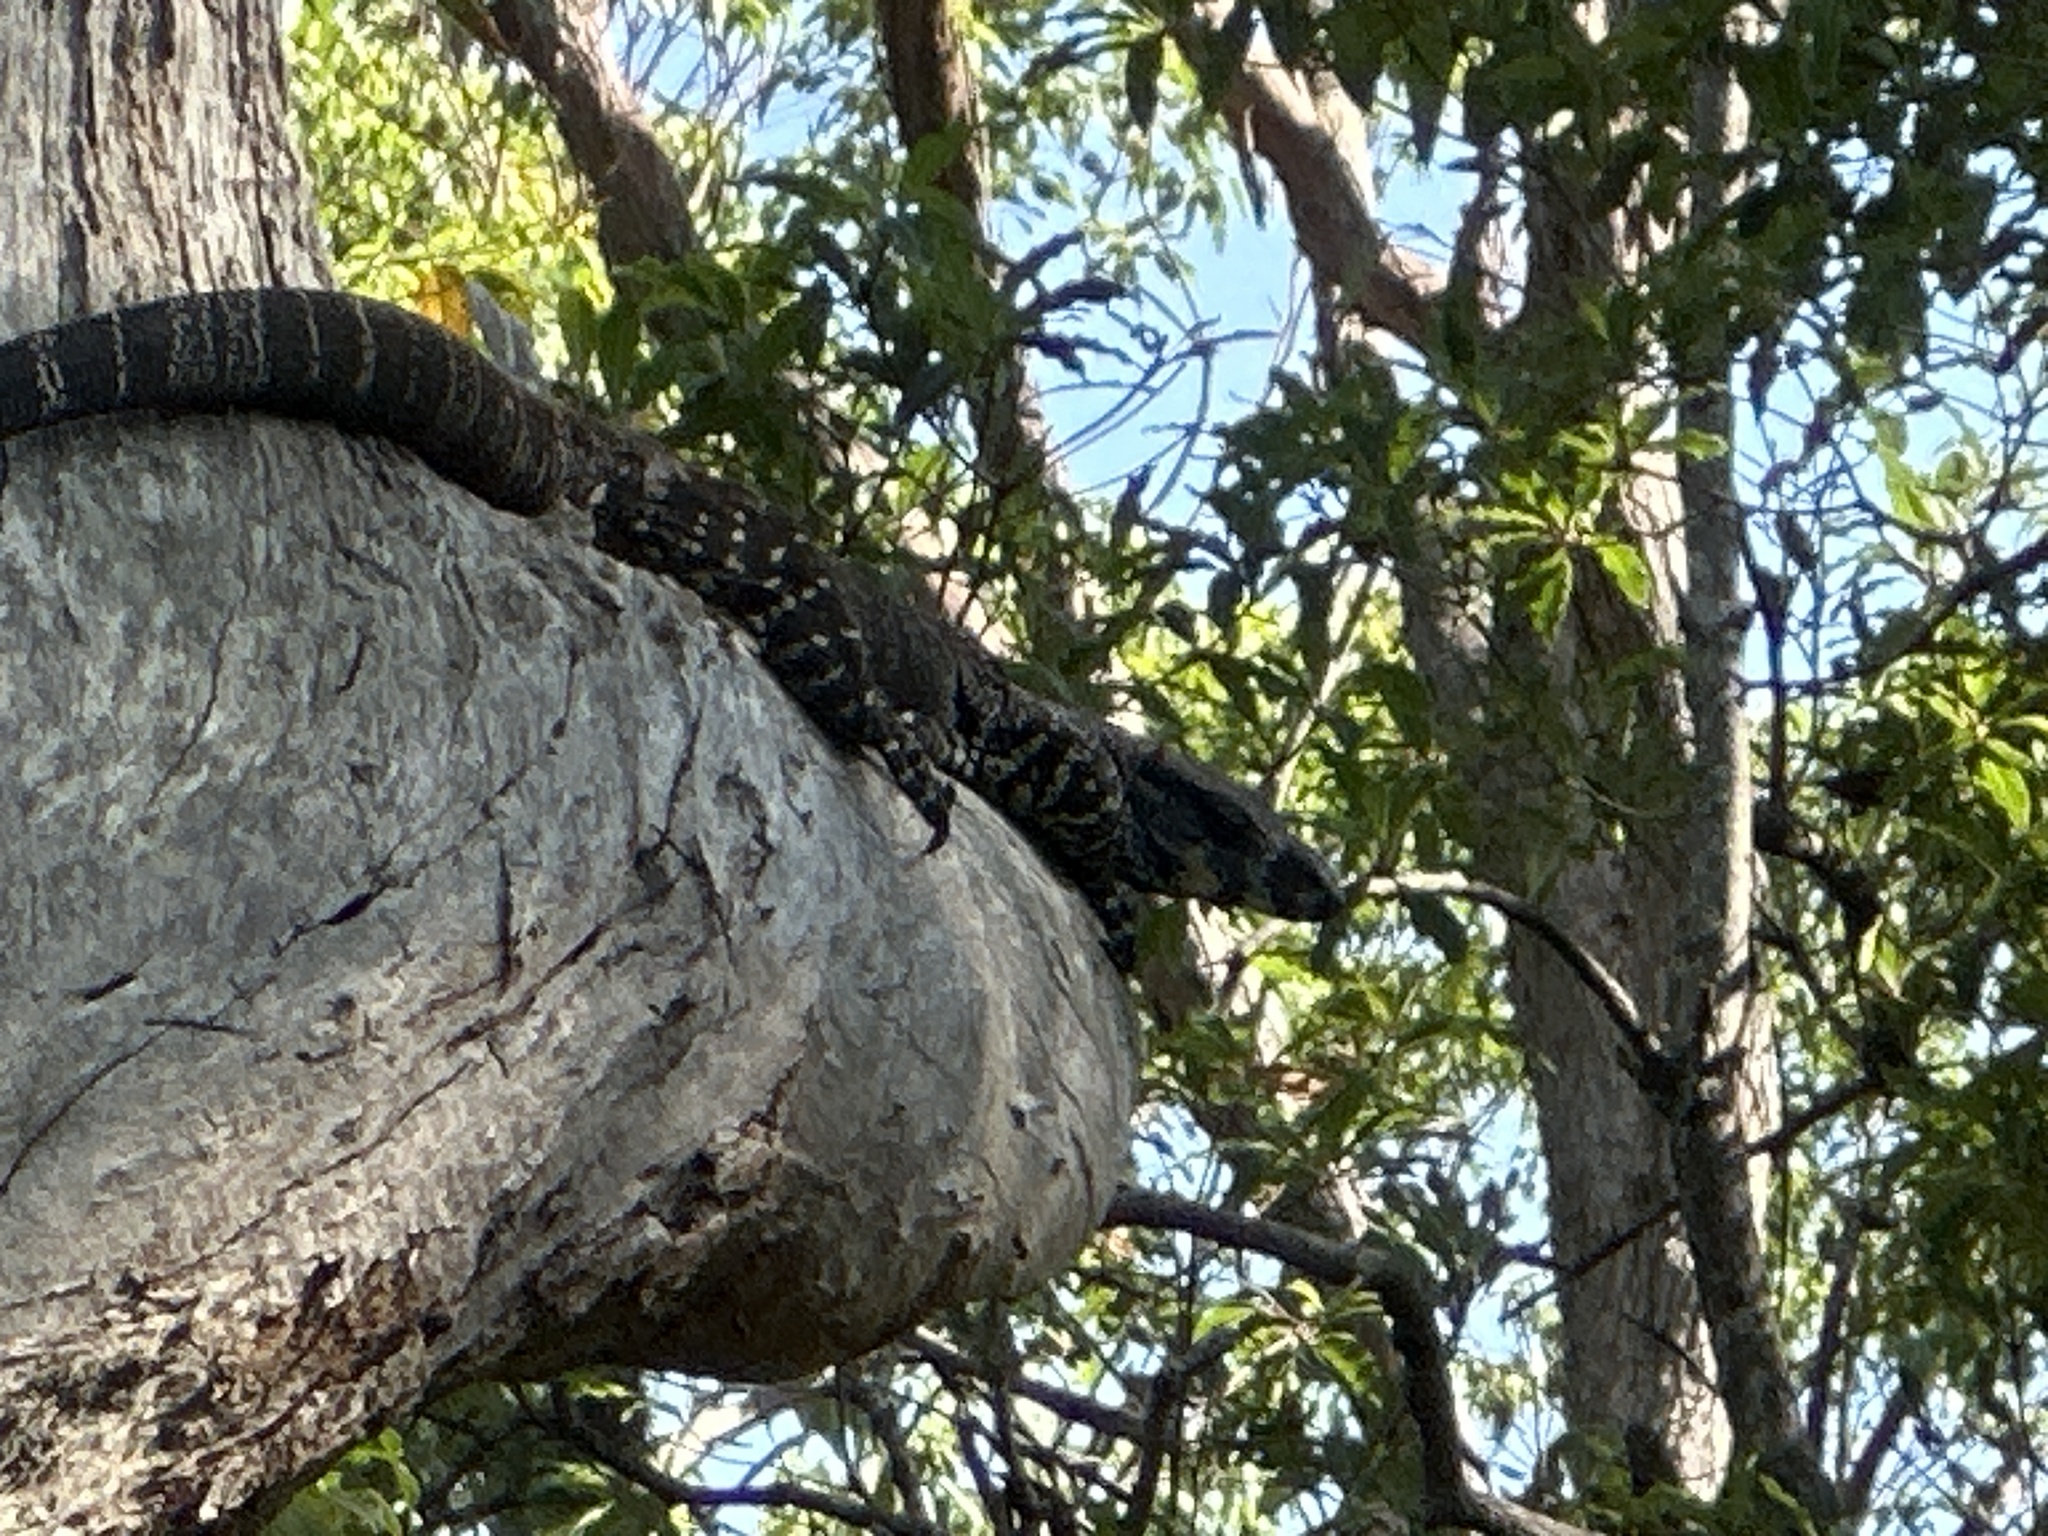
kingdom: Animalia
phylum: Chordata
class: Squamata
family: Varanidae
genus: Varanus
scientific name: Varanus varius
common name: Lace monitor
